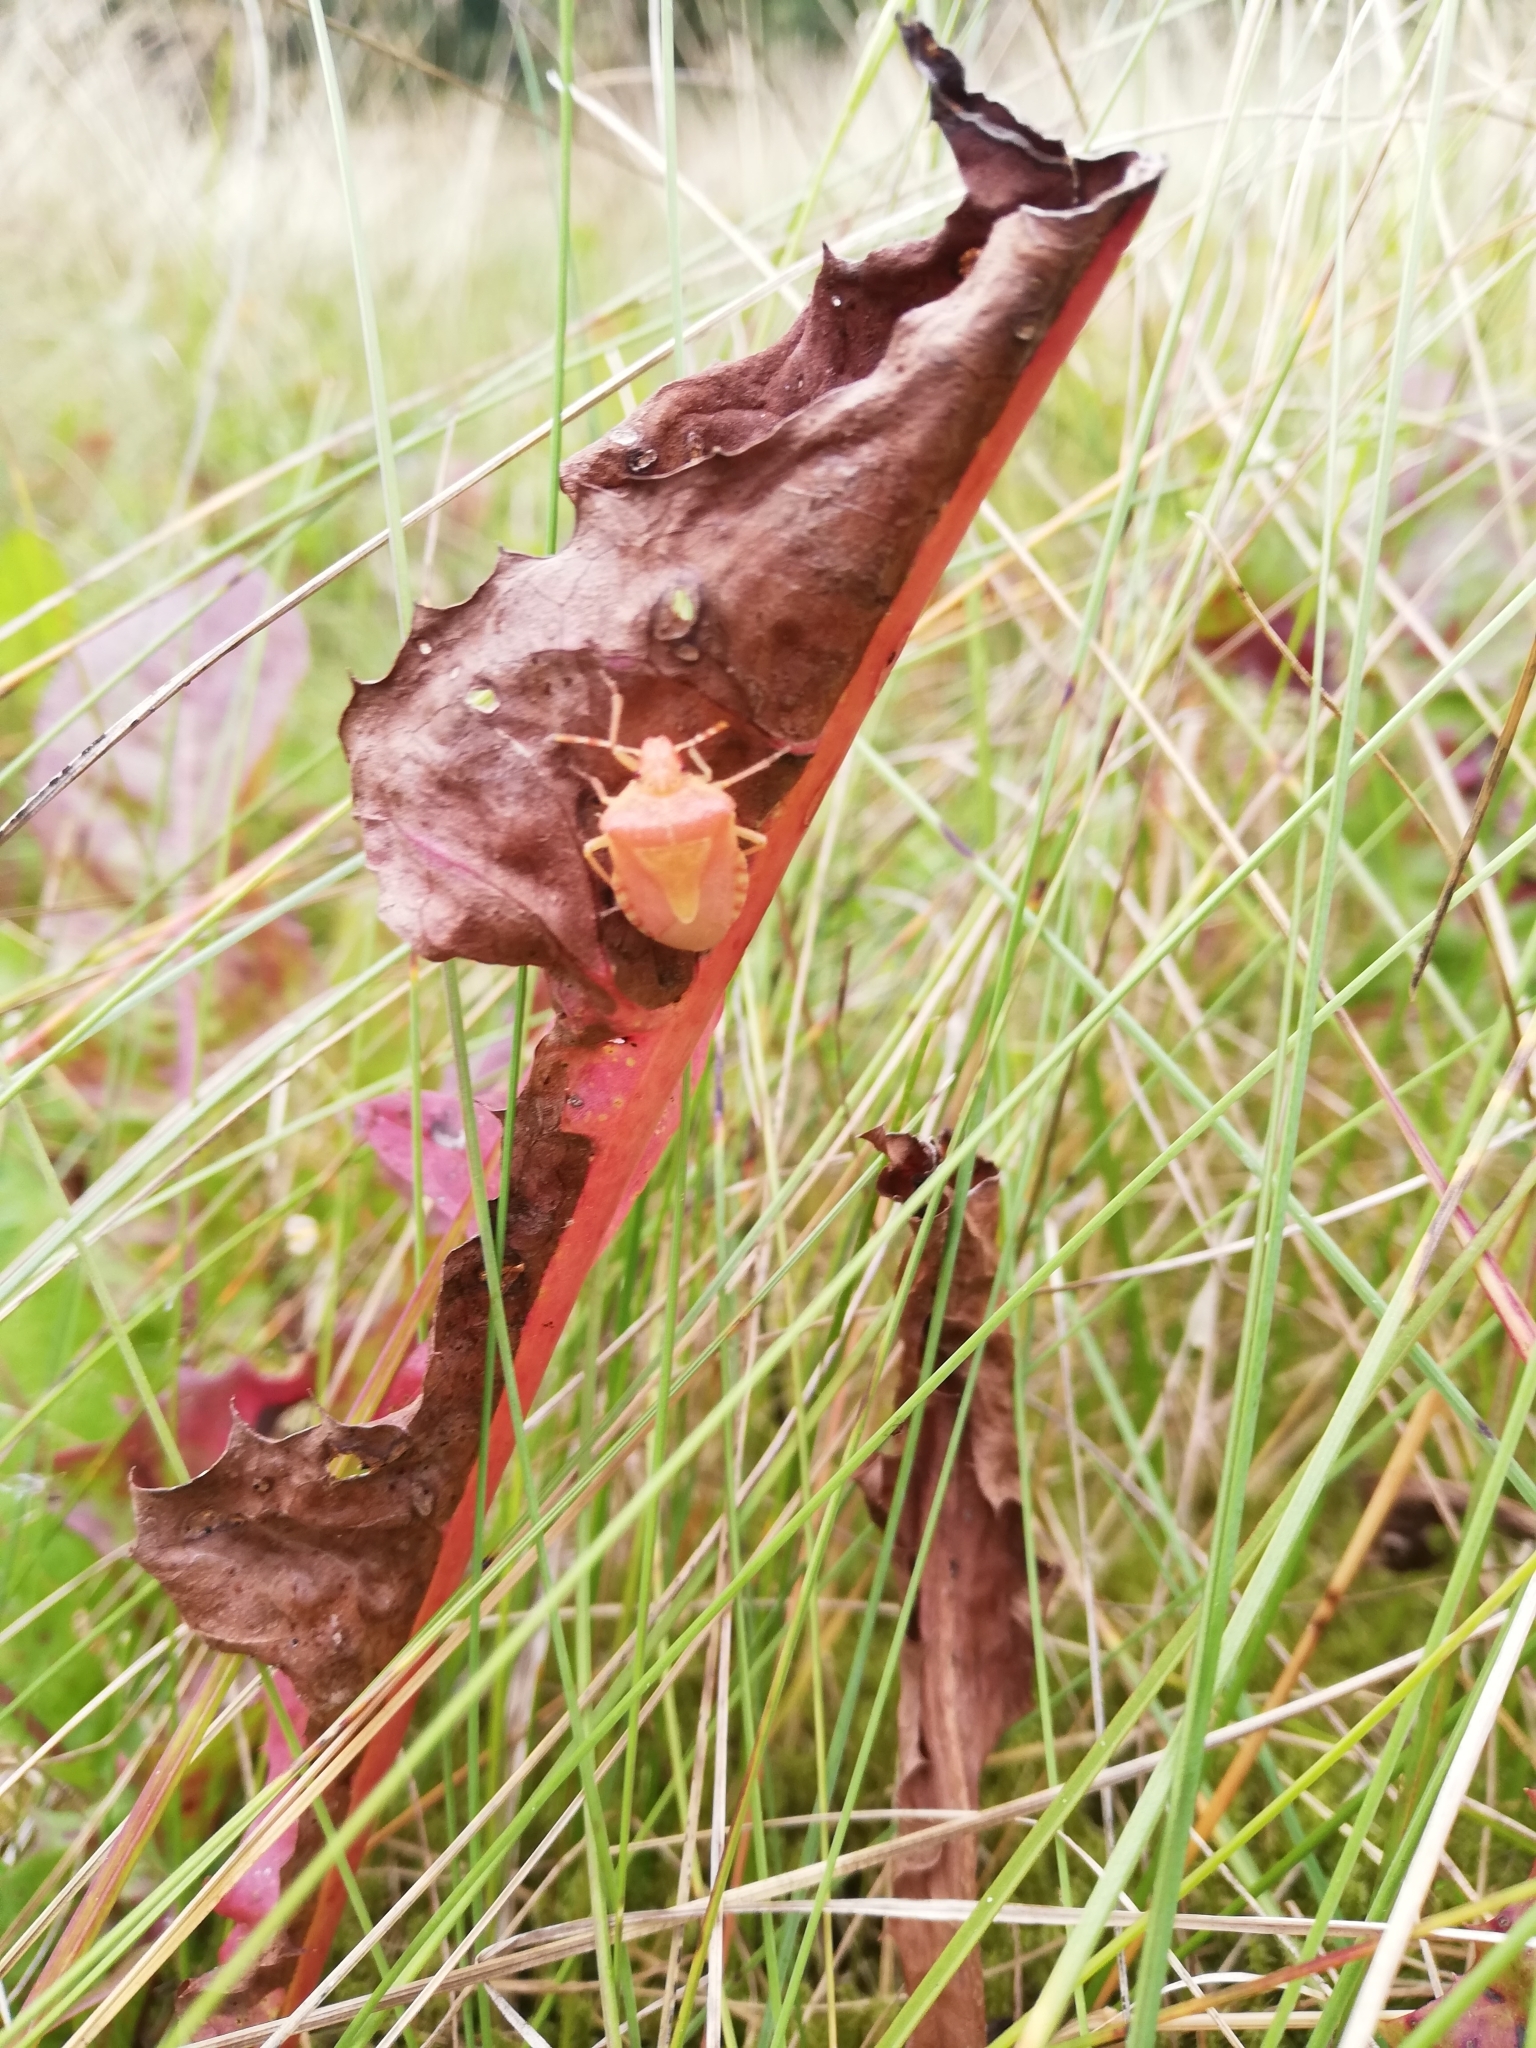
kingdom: Animalia
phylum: Arthropoda
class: Insecta
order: Hemiptera
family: Pentatomidae
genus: Dolycoris
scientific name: Dolycoris baccarum
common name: Sloe bug
